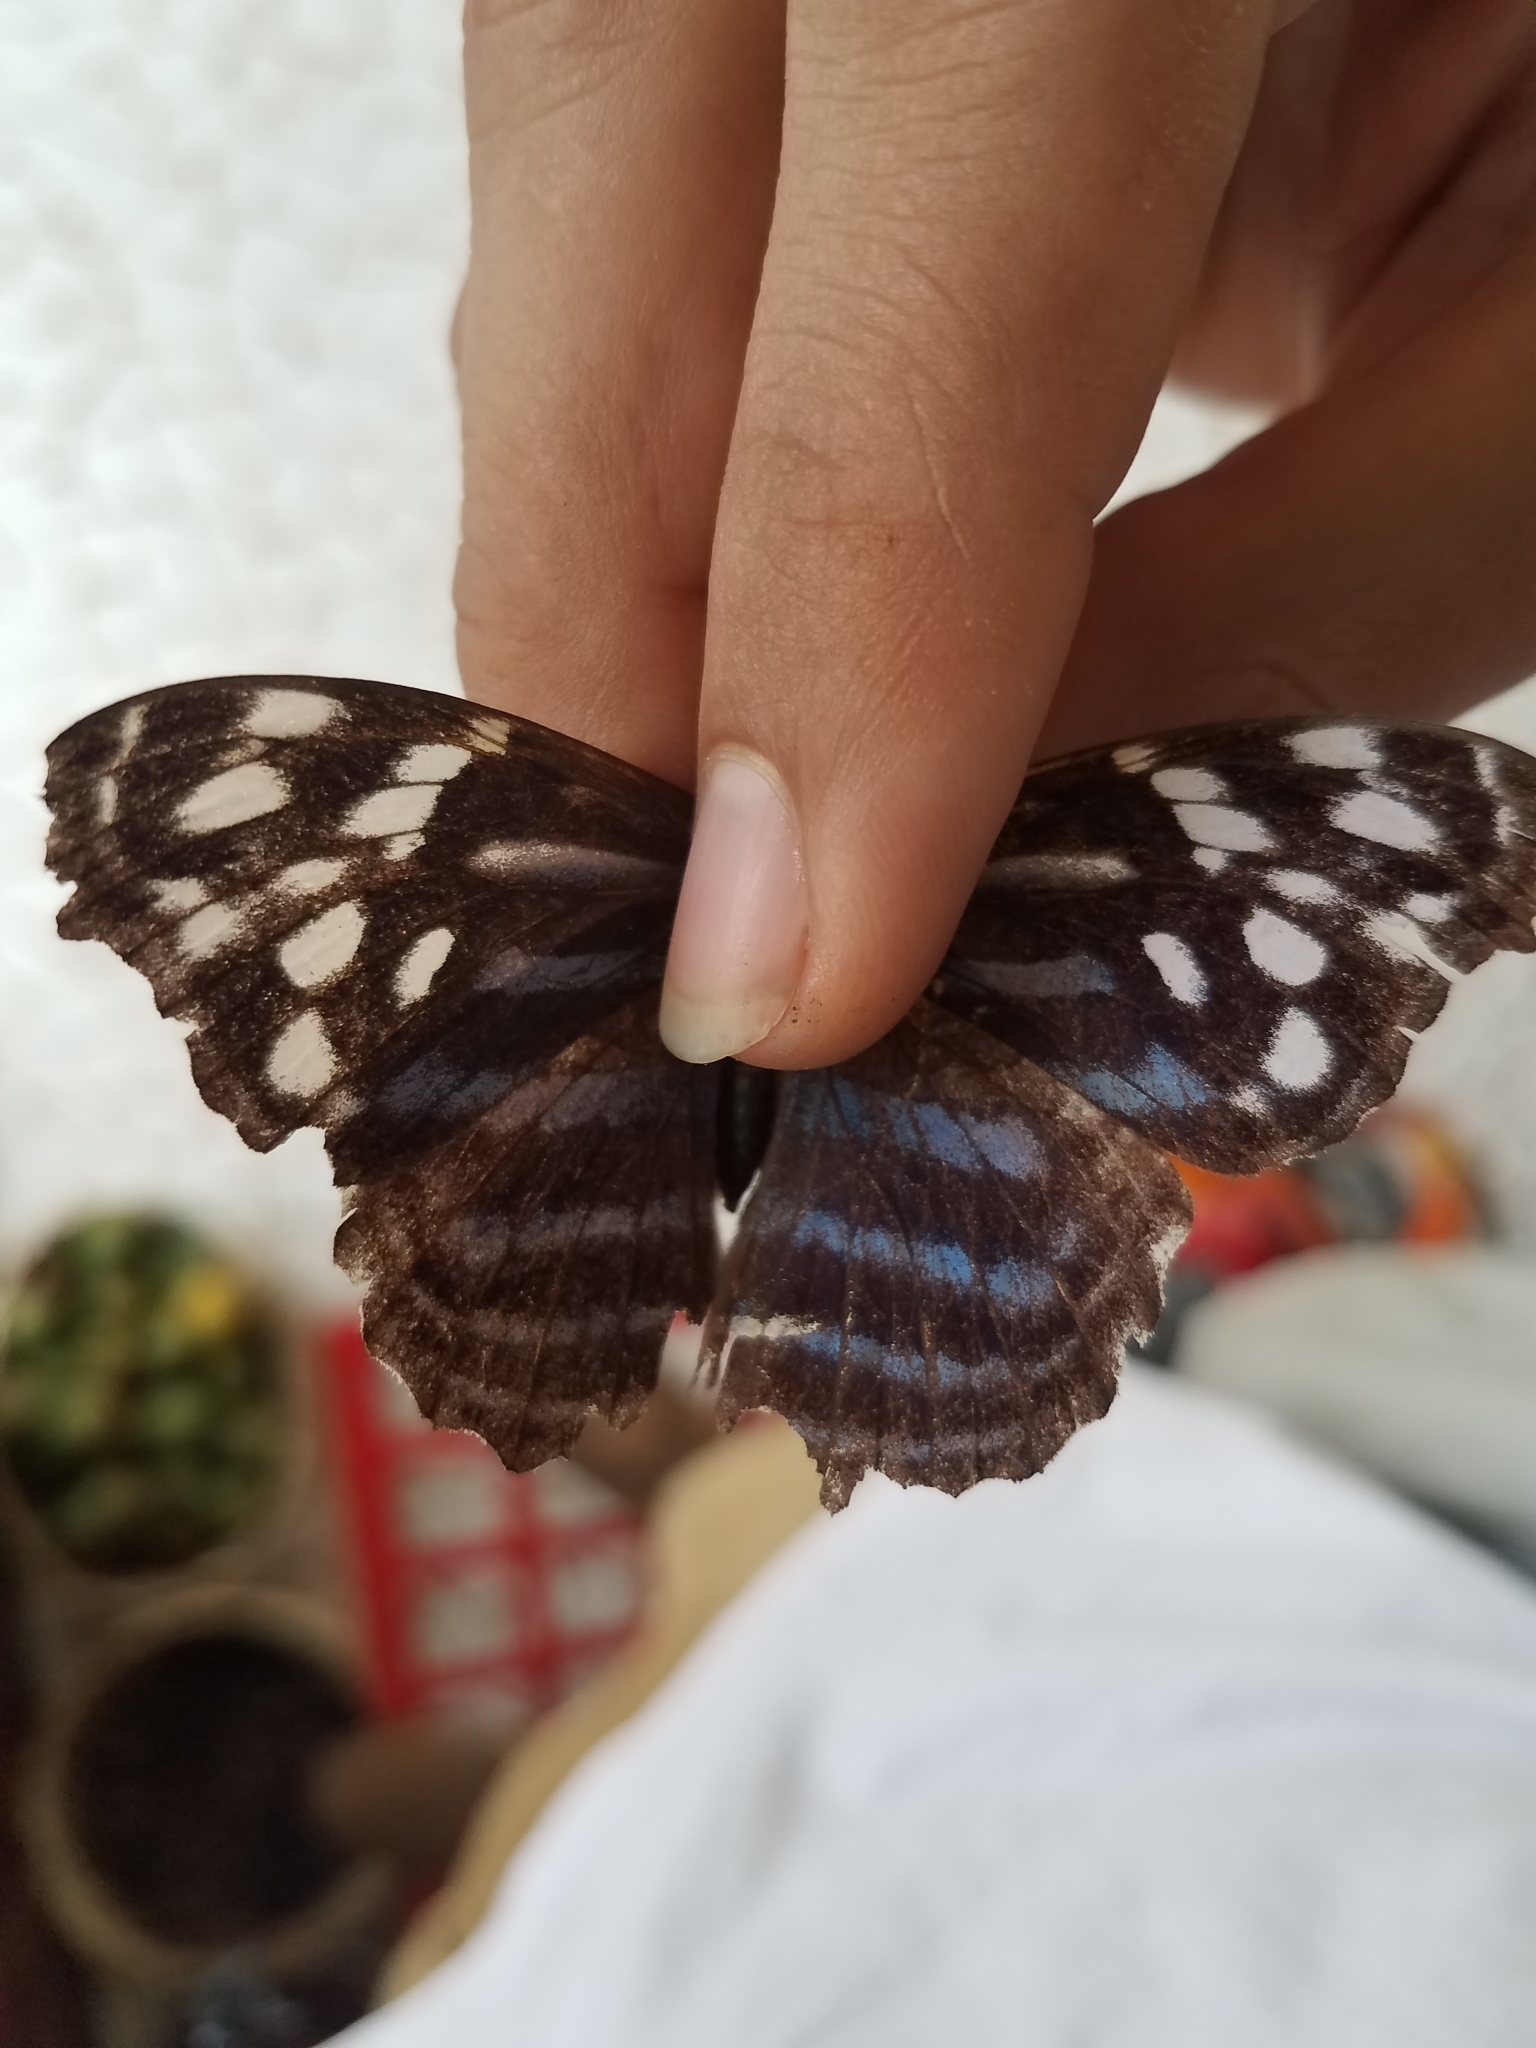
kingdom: Animalia
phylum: Arthropoda
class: Insecta
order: Lepidoptera
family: Nymphalidae
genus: Myscelia
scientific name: Myscelia ethusa
